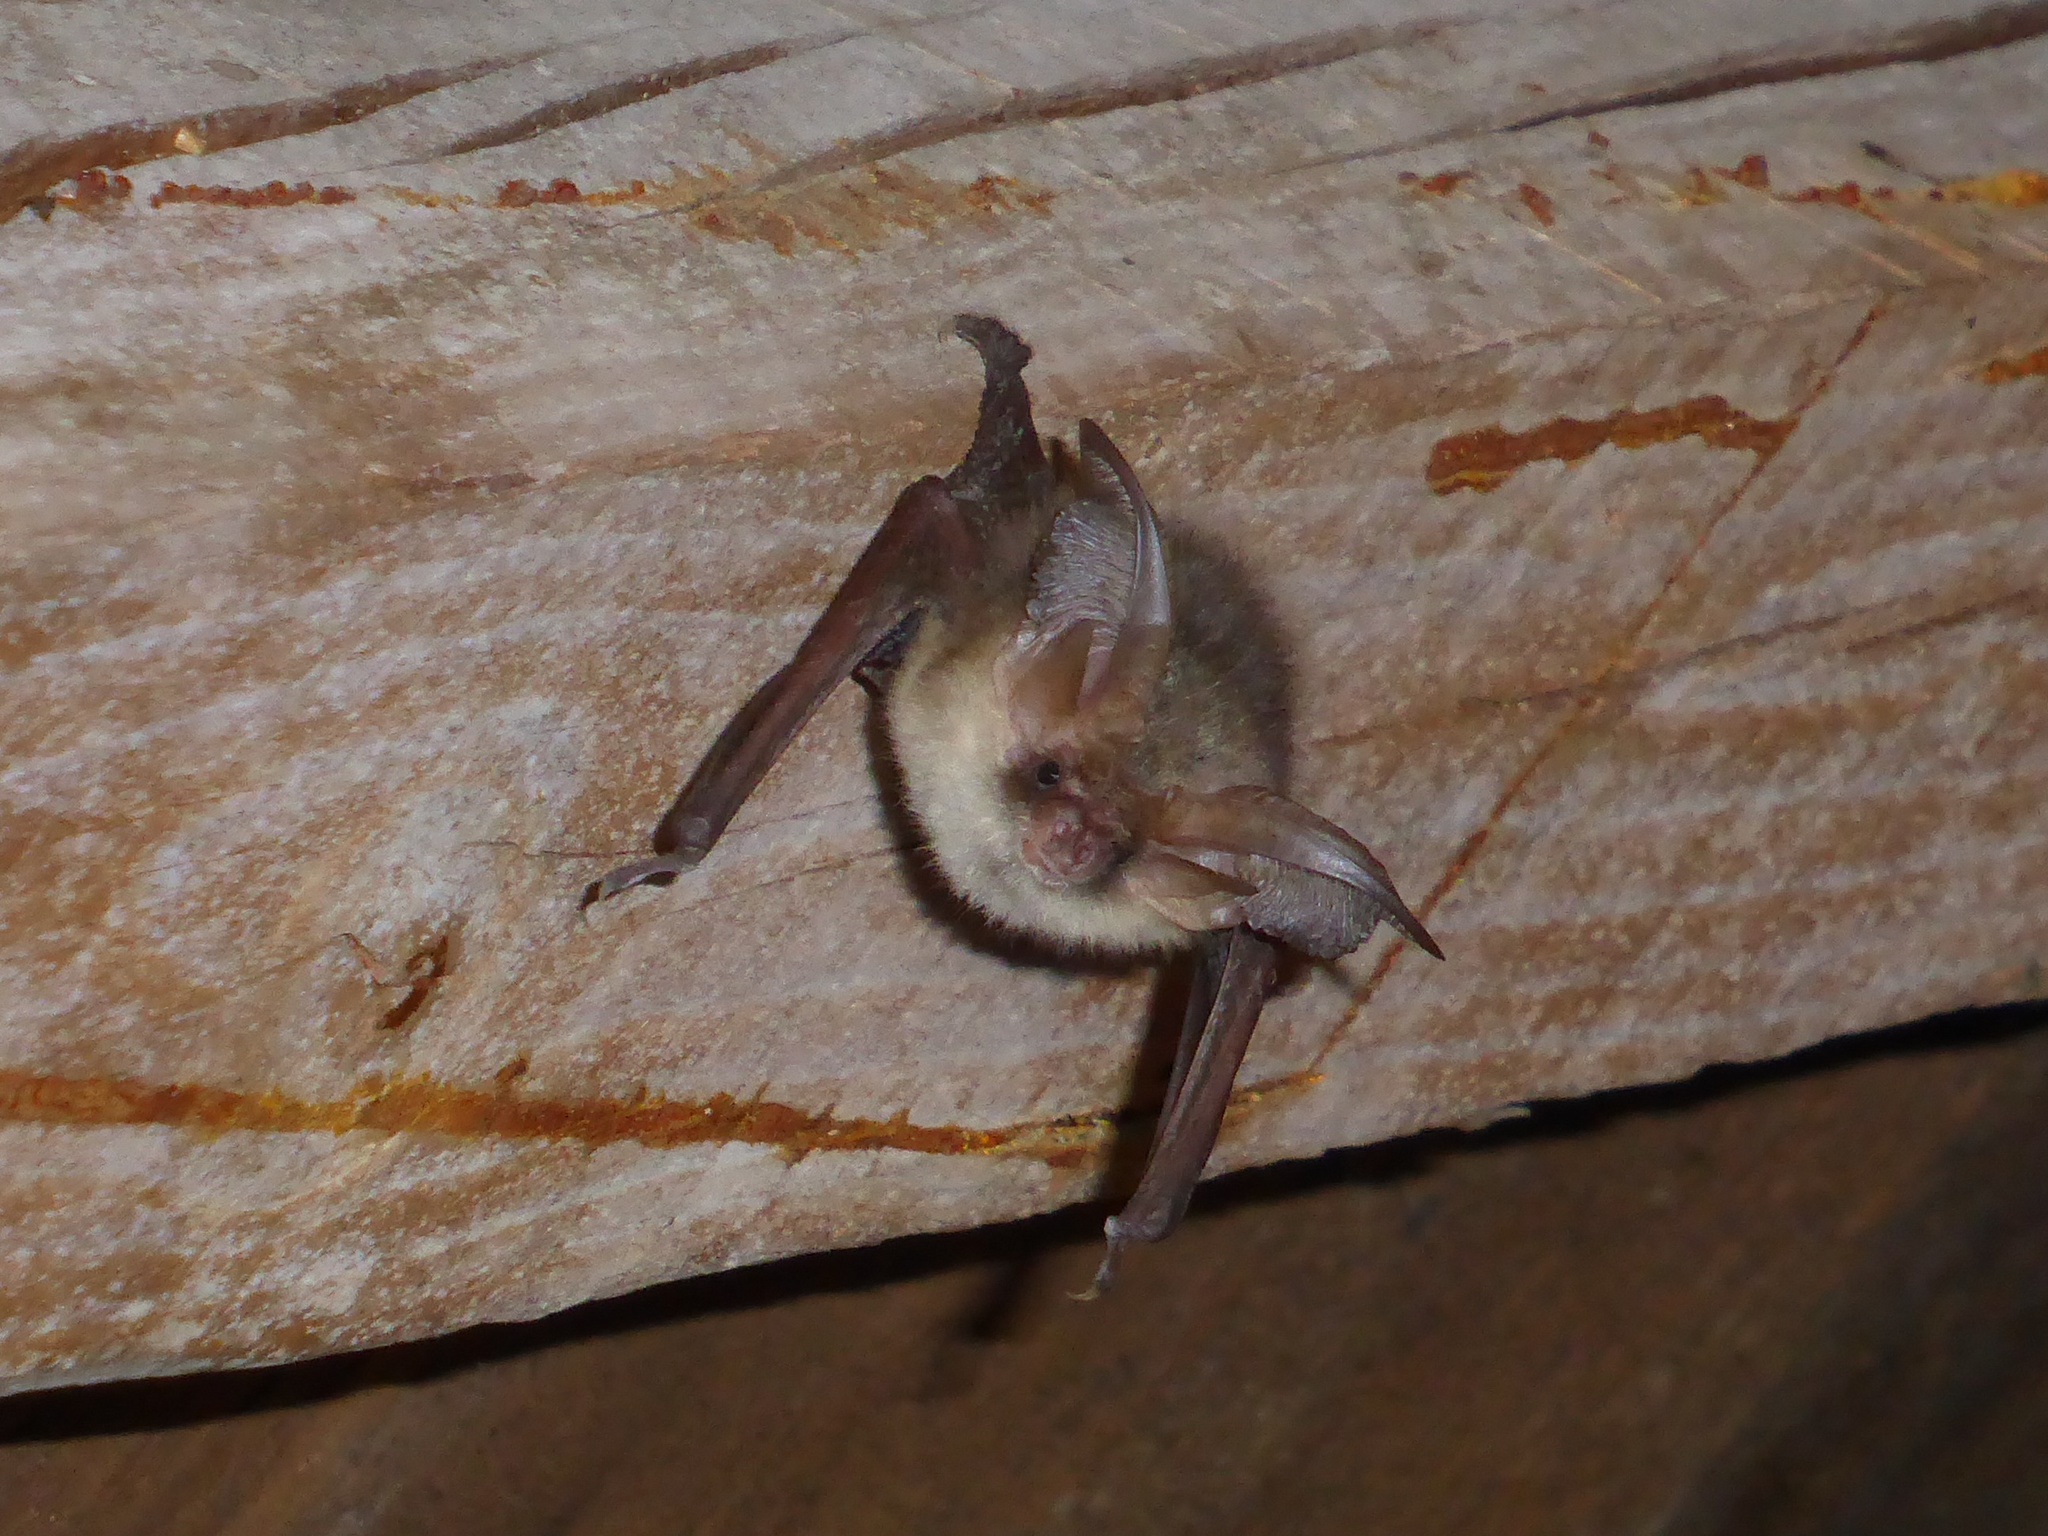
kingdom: Animalia
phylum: Chordata
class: Mammalia
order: Chiroptera
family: Vespertilionidae
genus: Plecotus
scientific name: Plecotus auritus
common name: Brown long-eared bat
